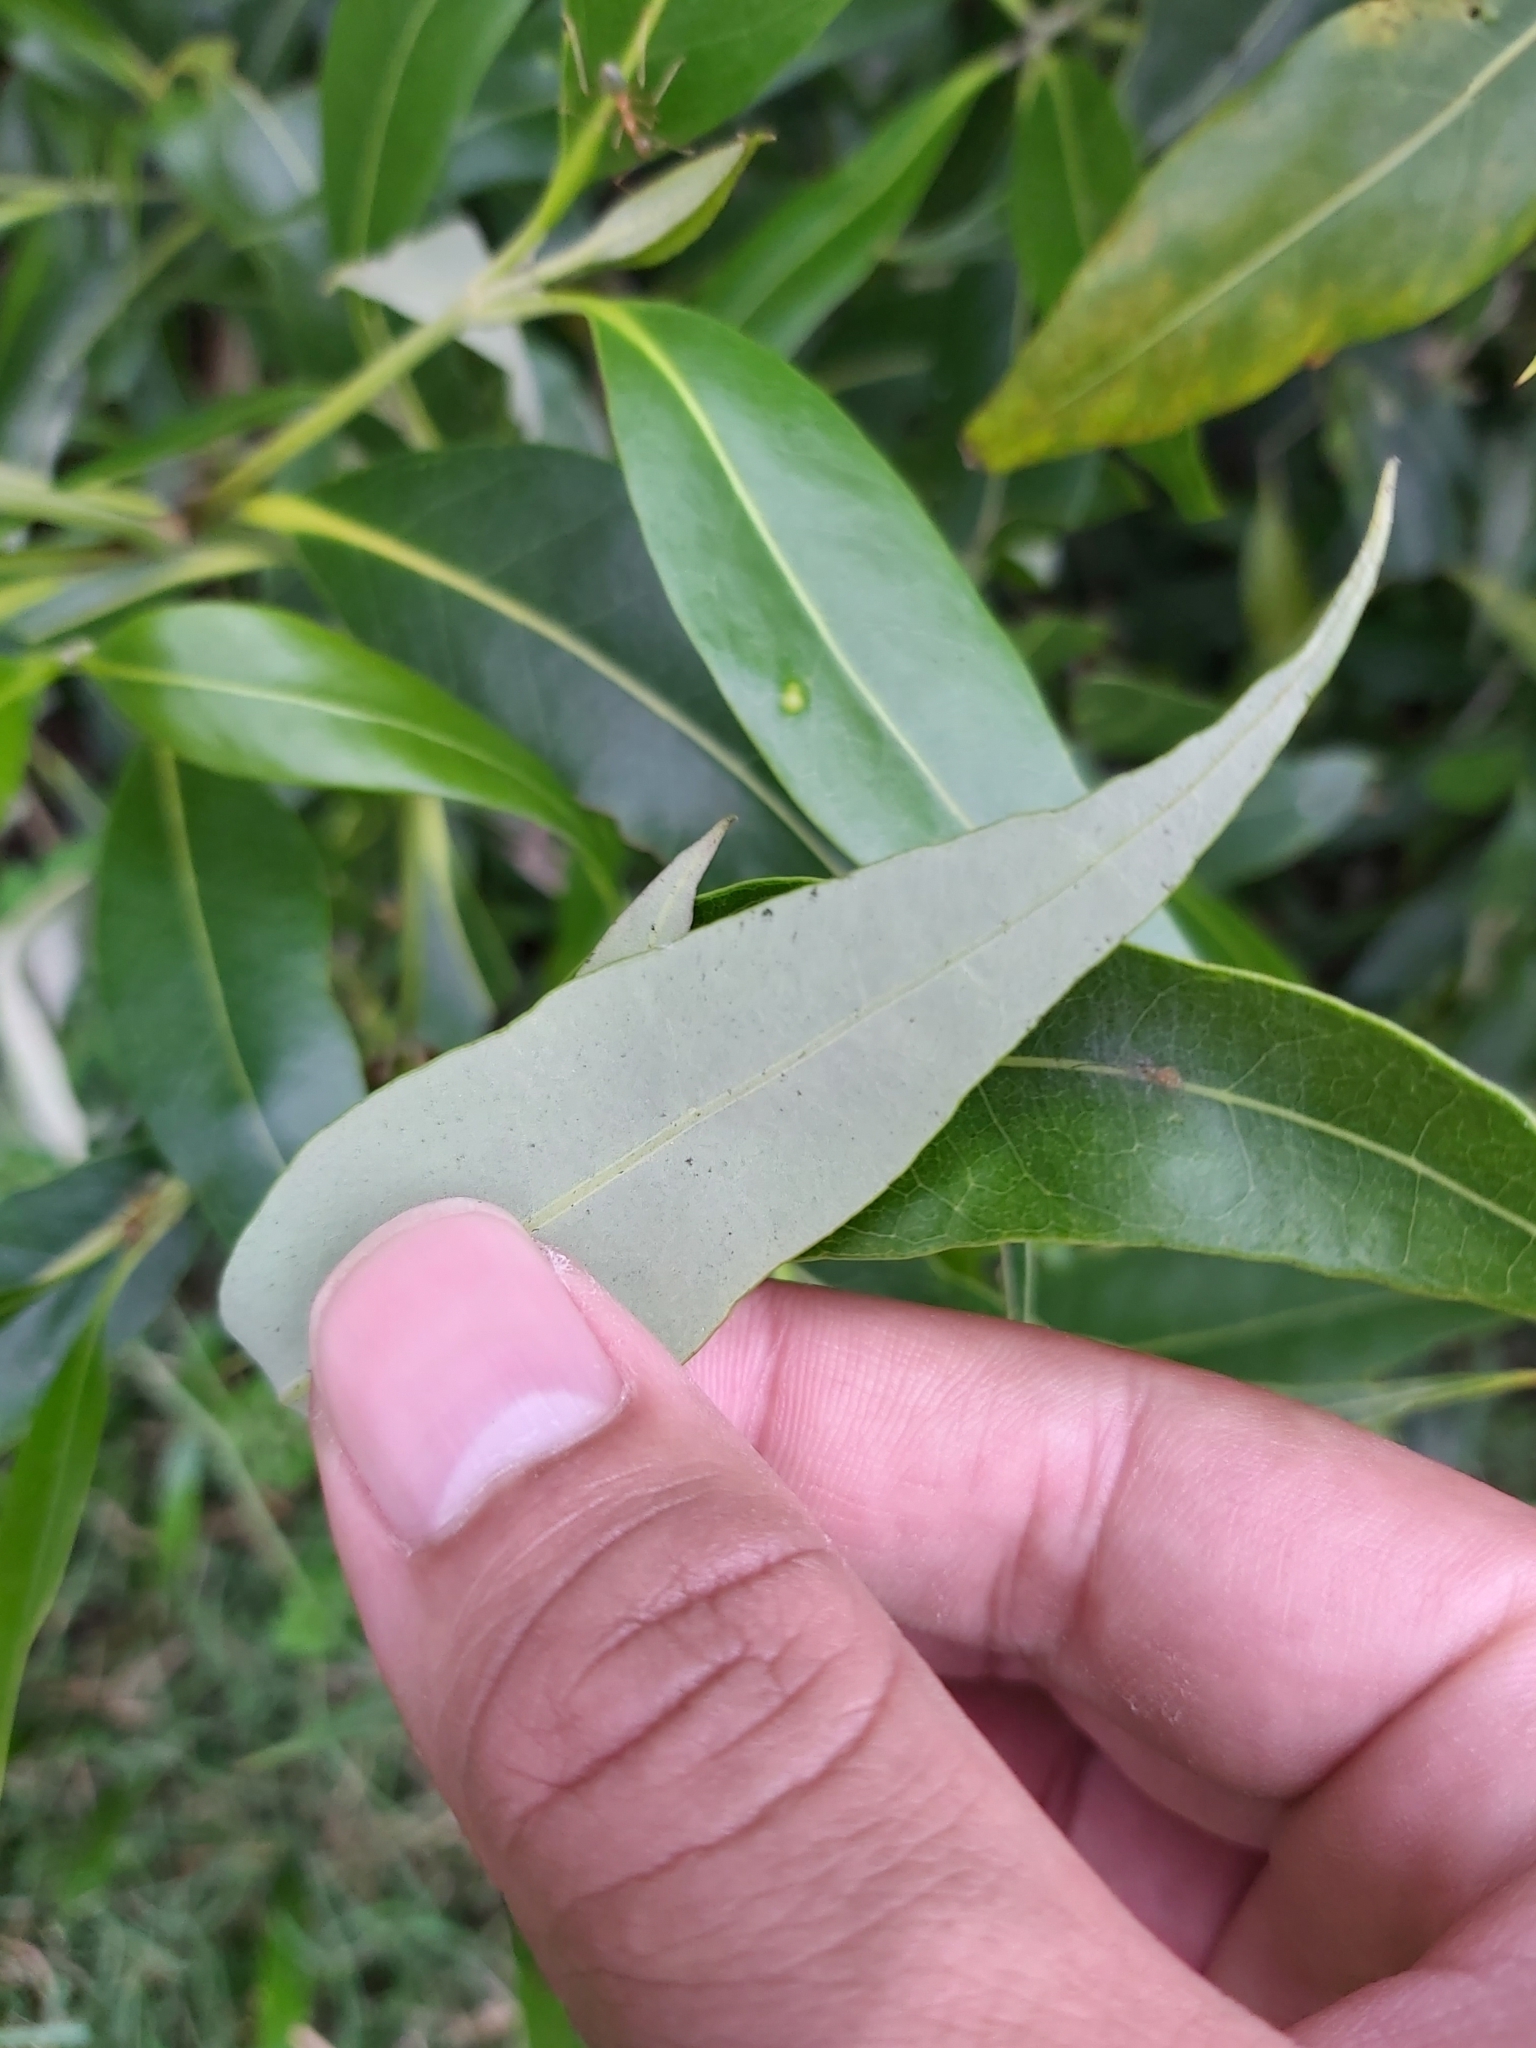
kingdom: Plantae
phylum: Tracheophyta
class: Magnoliopsida
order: Lamiales
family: Acanthaceae
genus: Avicennia
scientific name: Avicennia marina
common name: Gray mangrove
